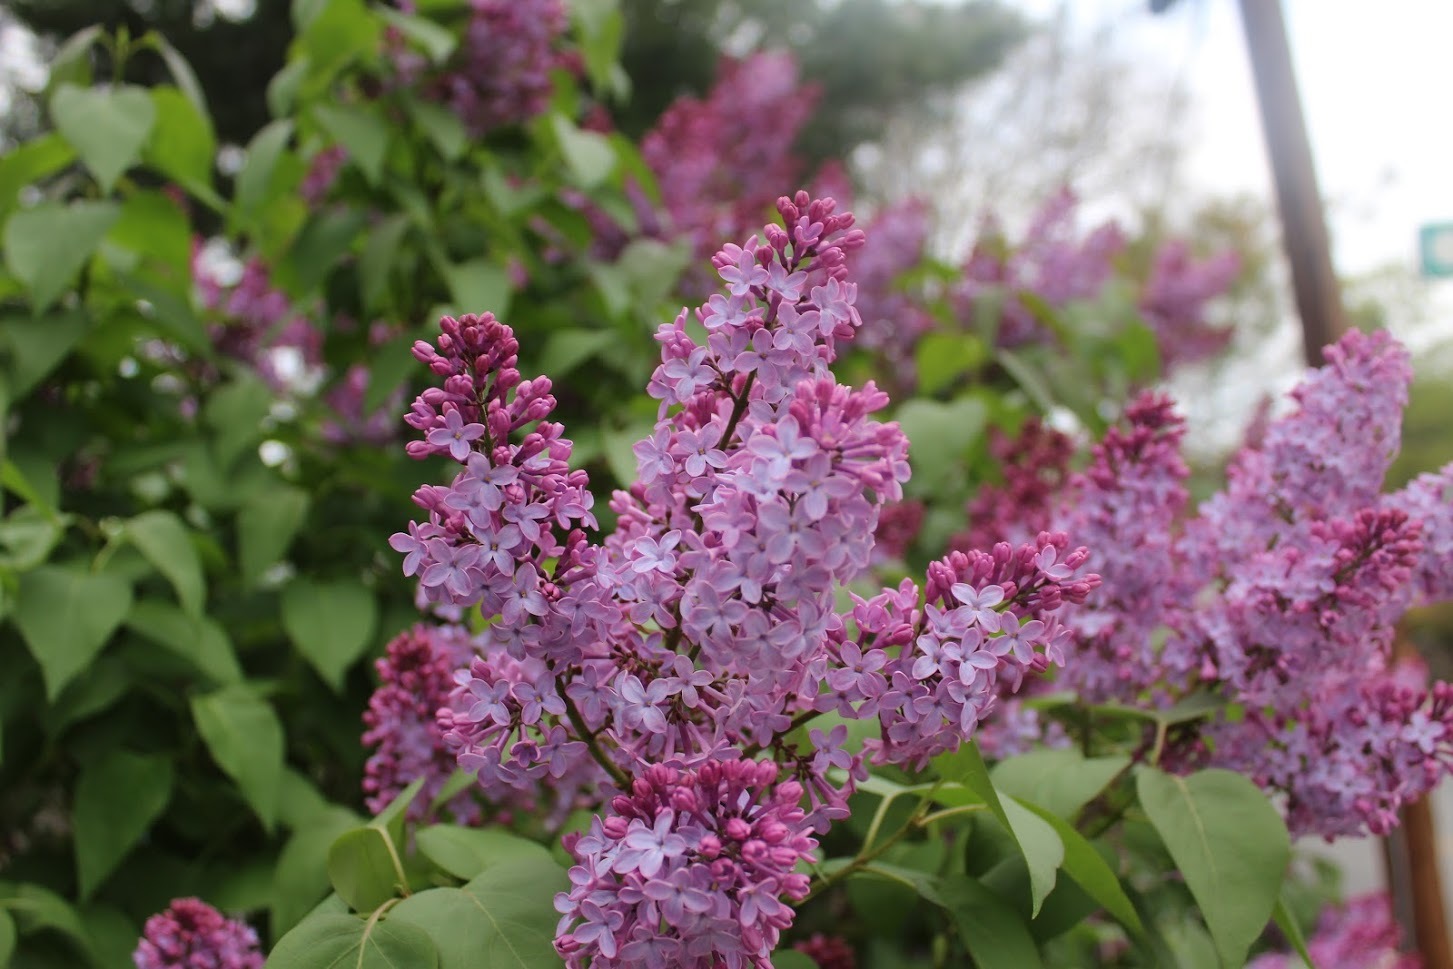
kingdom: Plantae
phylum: Tracheophyta
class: Magnoliopsida
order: Lamiales
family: Oleaceae
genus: Syringa
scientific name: Syringa vulgaris
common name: Common lilac
